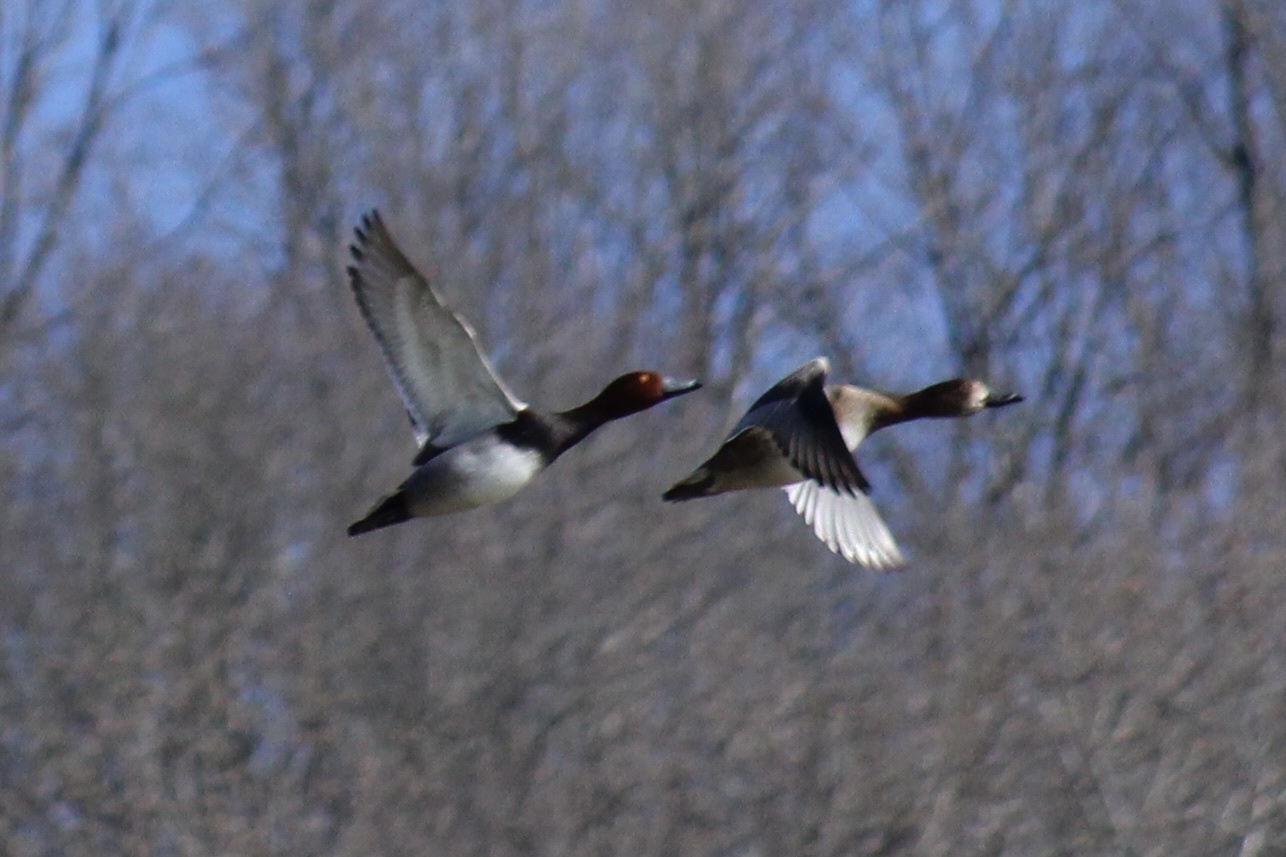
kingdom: Animalia
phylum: Chordata
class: Aves
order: Anseriformes
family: Anatidae
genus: Aythya
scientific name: Aythya americana
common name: Redhead
